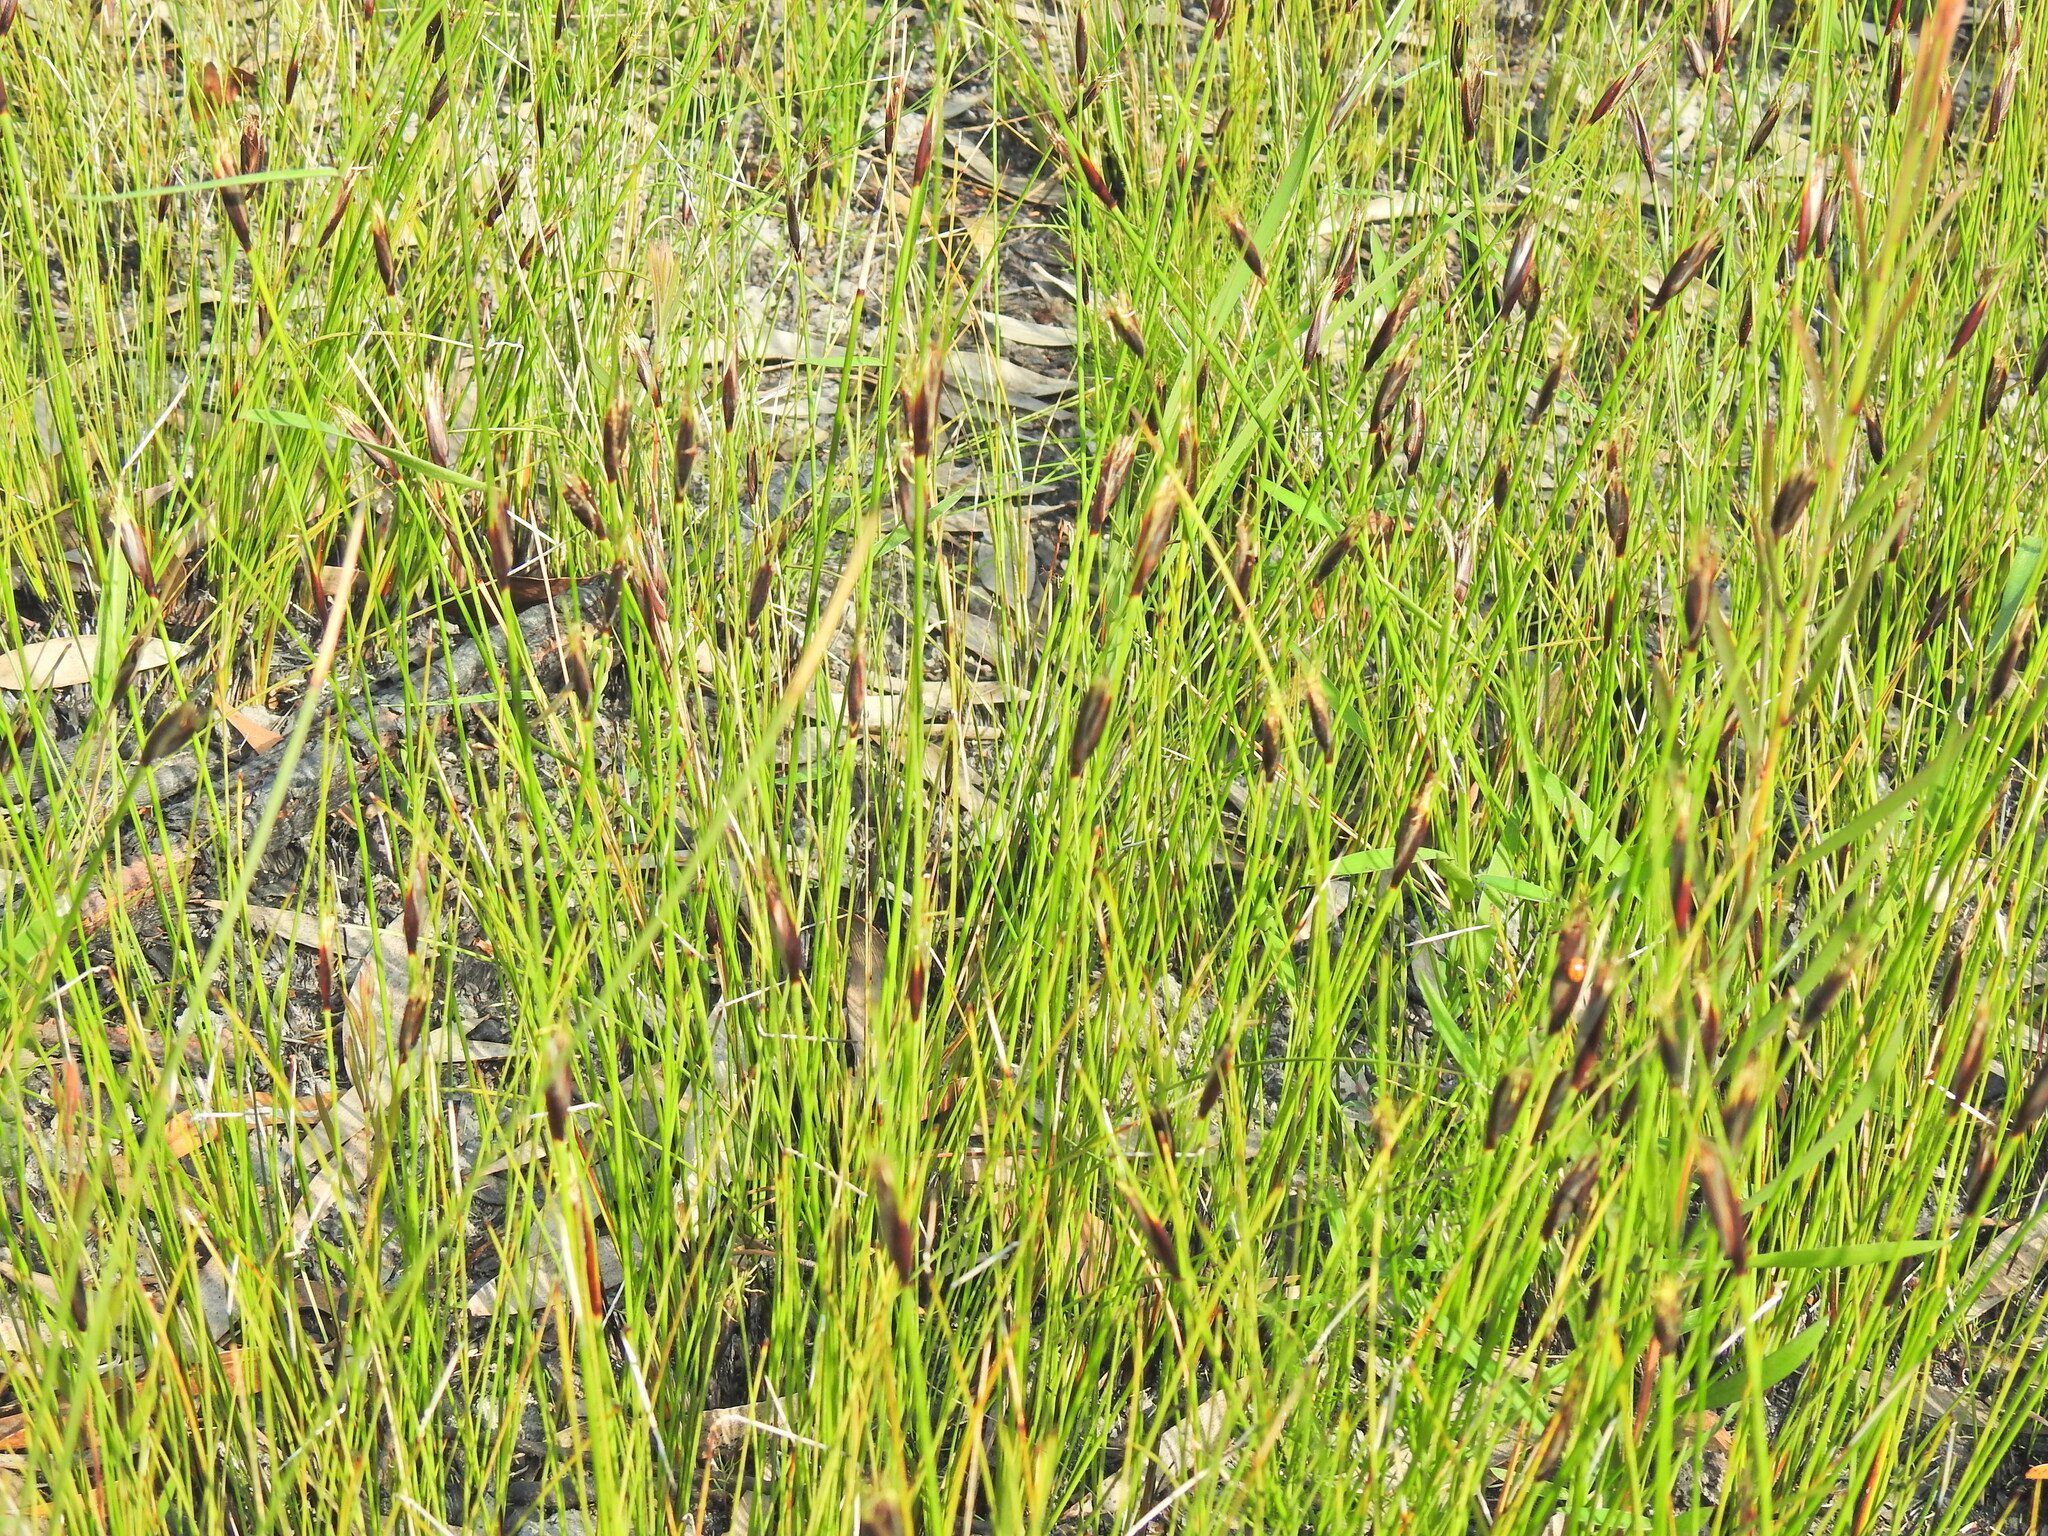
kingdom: Plantae
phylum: Tracheophyta
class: Liliopsida
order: Poales
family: Cyperaceae
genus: Ptilothrix
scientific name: Ptilothrix deusta
